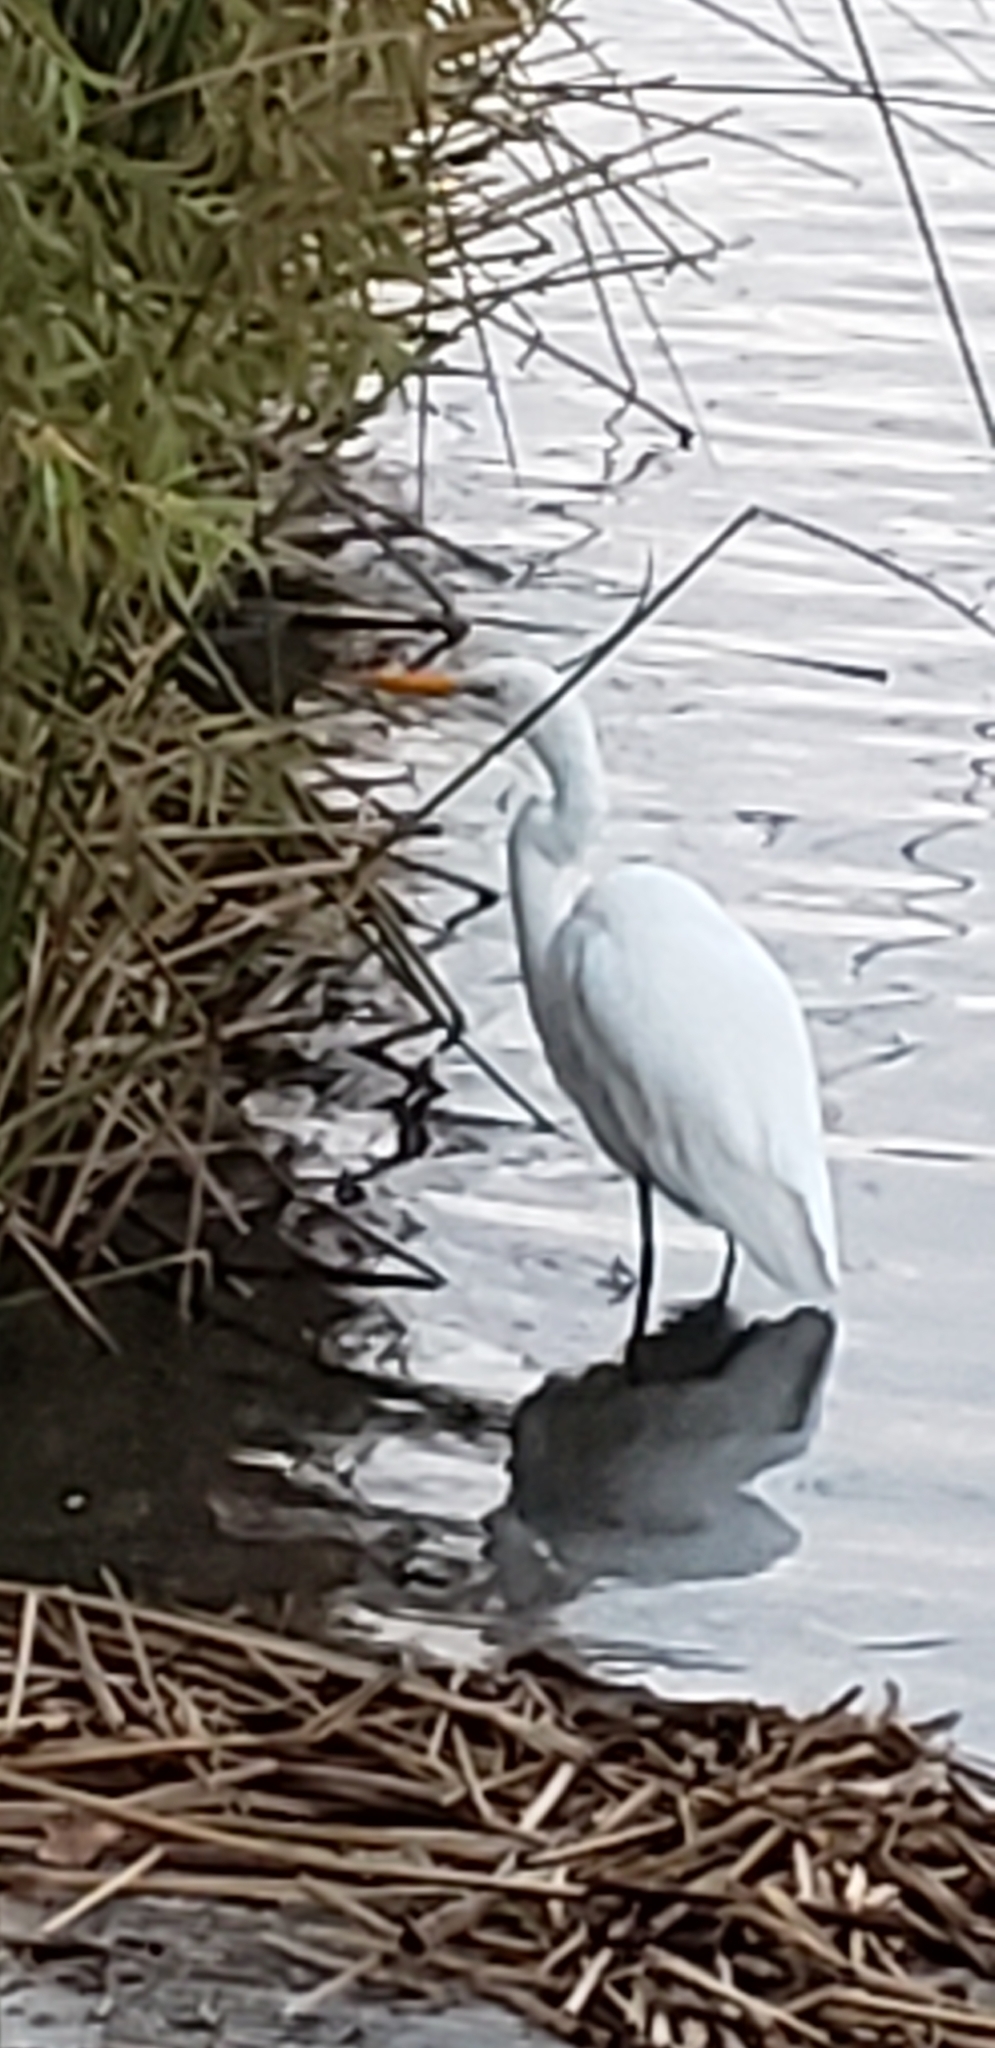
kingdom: Animalia
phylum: Chordata
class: Aves
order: Pelecaniformes
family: Ardeidae
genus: Ardea
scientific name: Ardea alba
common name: Great egret
